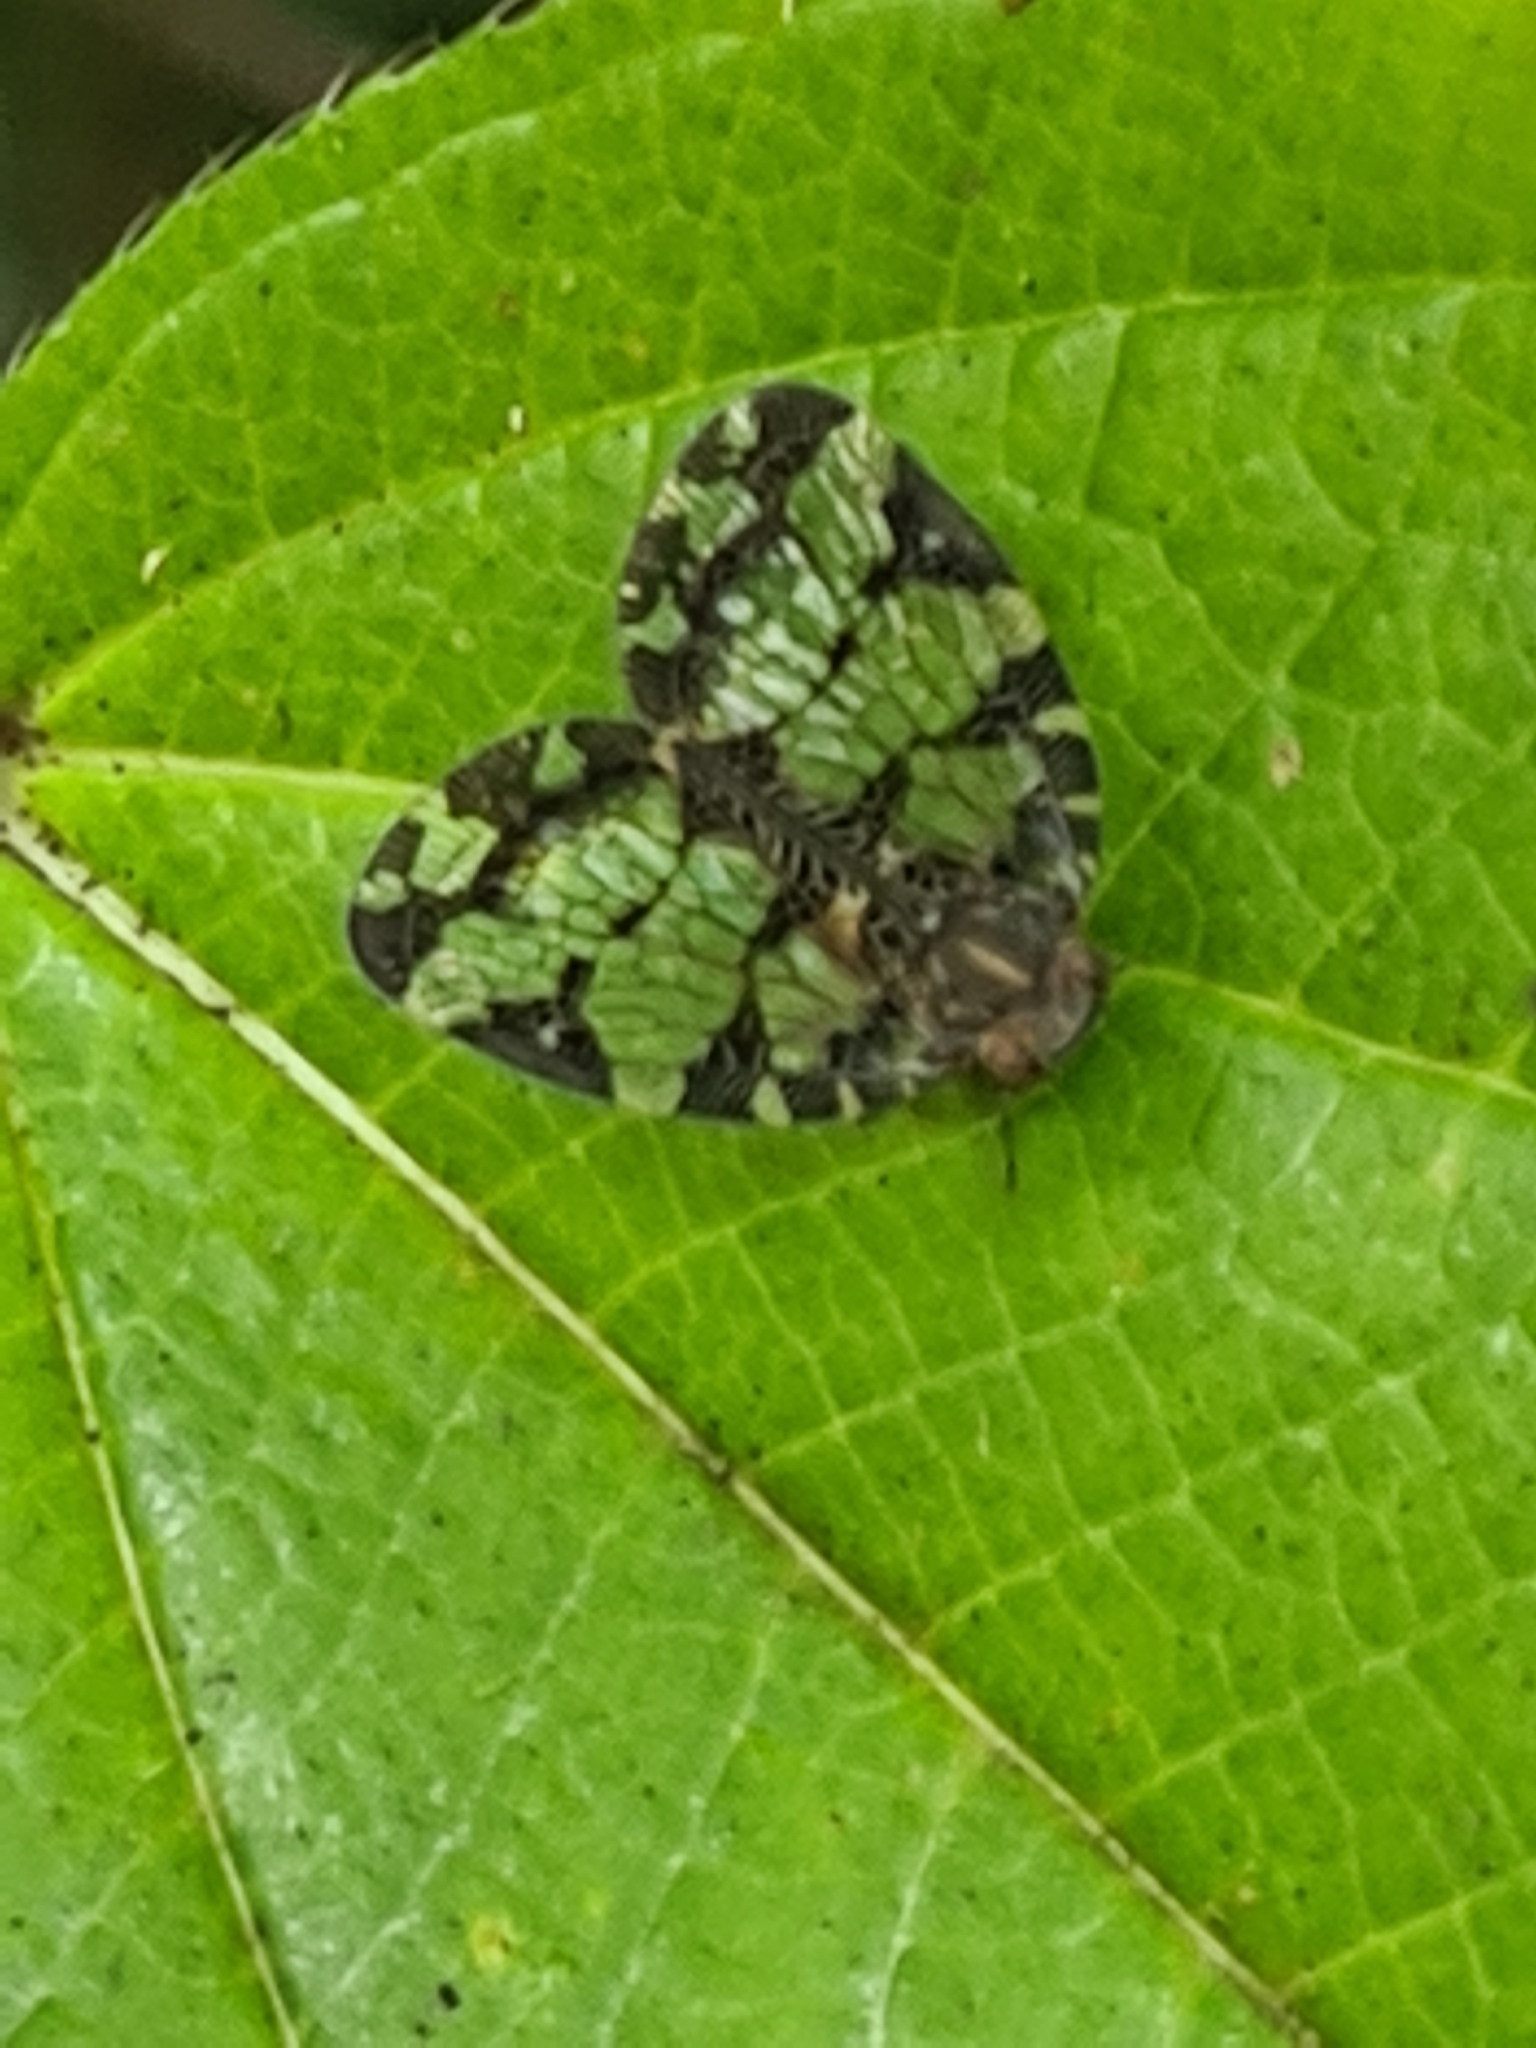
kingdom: Animalia
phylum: Arthropoda
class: Insecta
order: Hemiptera
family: Nogodinidae
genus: Nogodina
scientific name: Nogodina reticulata
